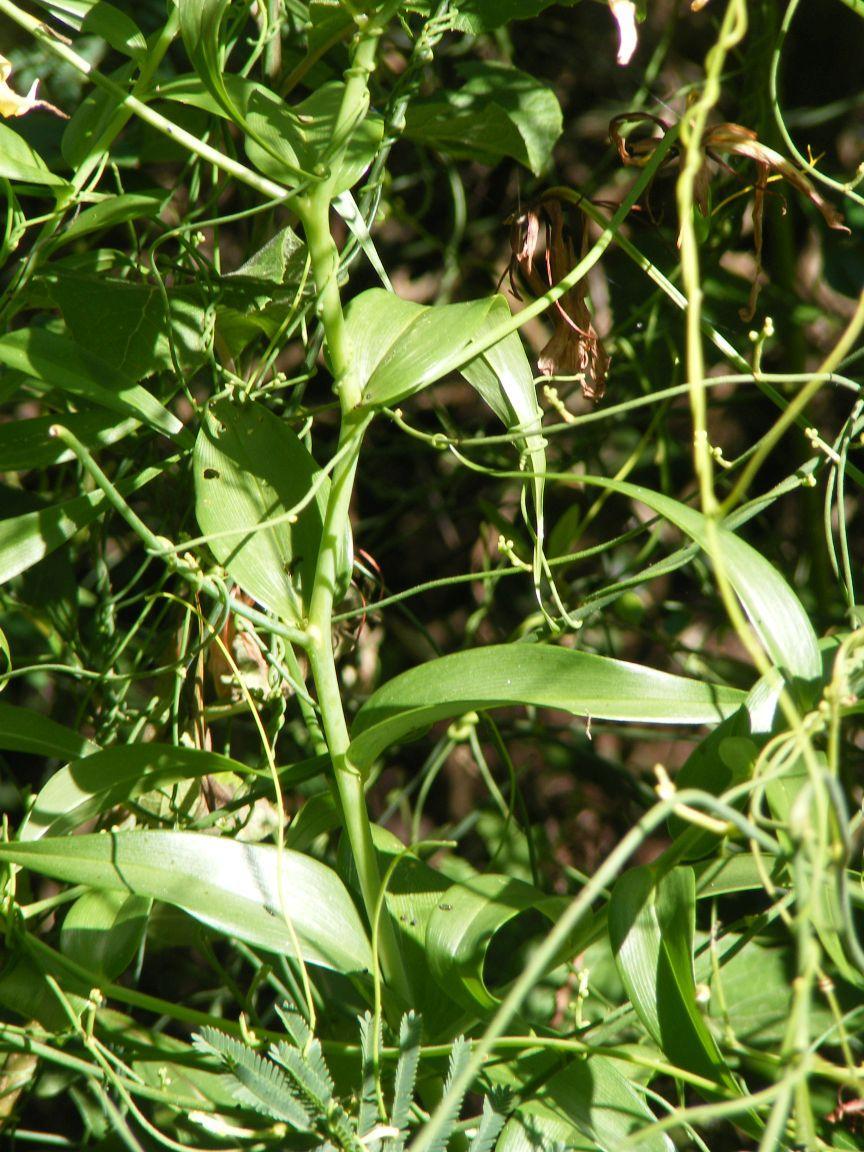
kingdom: Plantae
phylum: Tracheophyta
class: Liliopsida
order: Liliales
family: Colchicaceae
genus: Gloriosa
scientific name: Gloriosa superba
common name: Flame lily
